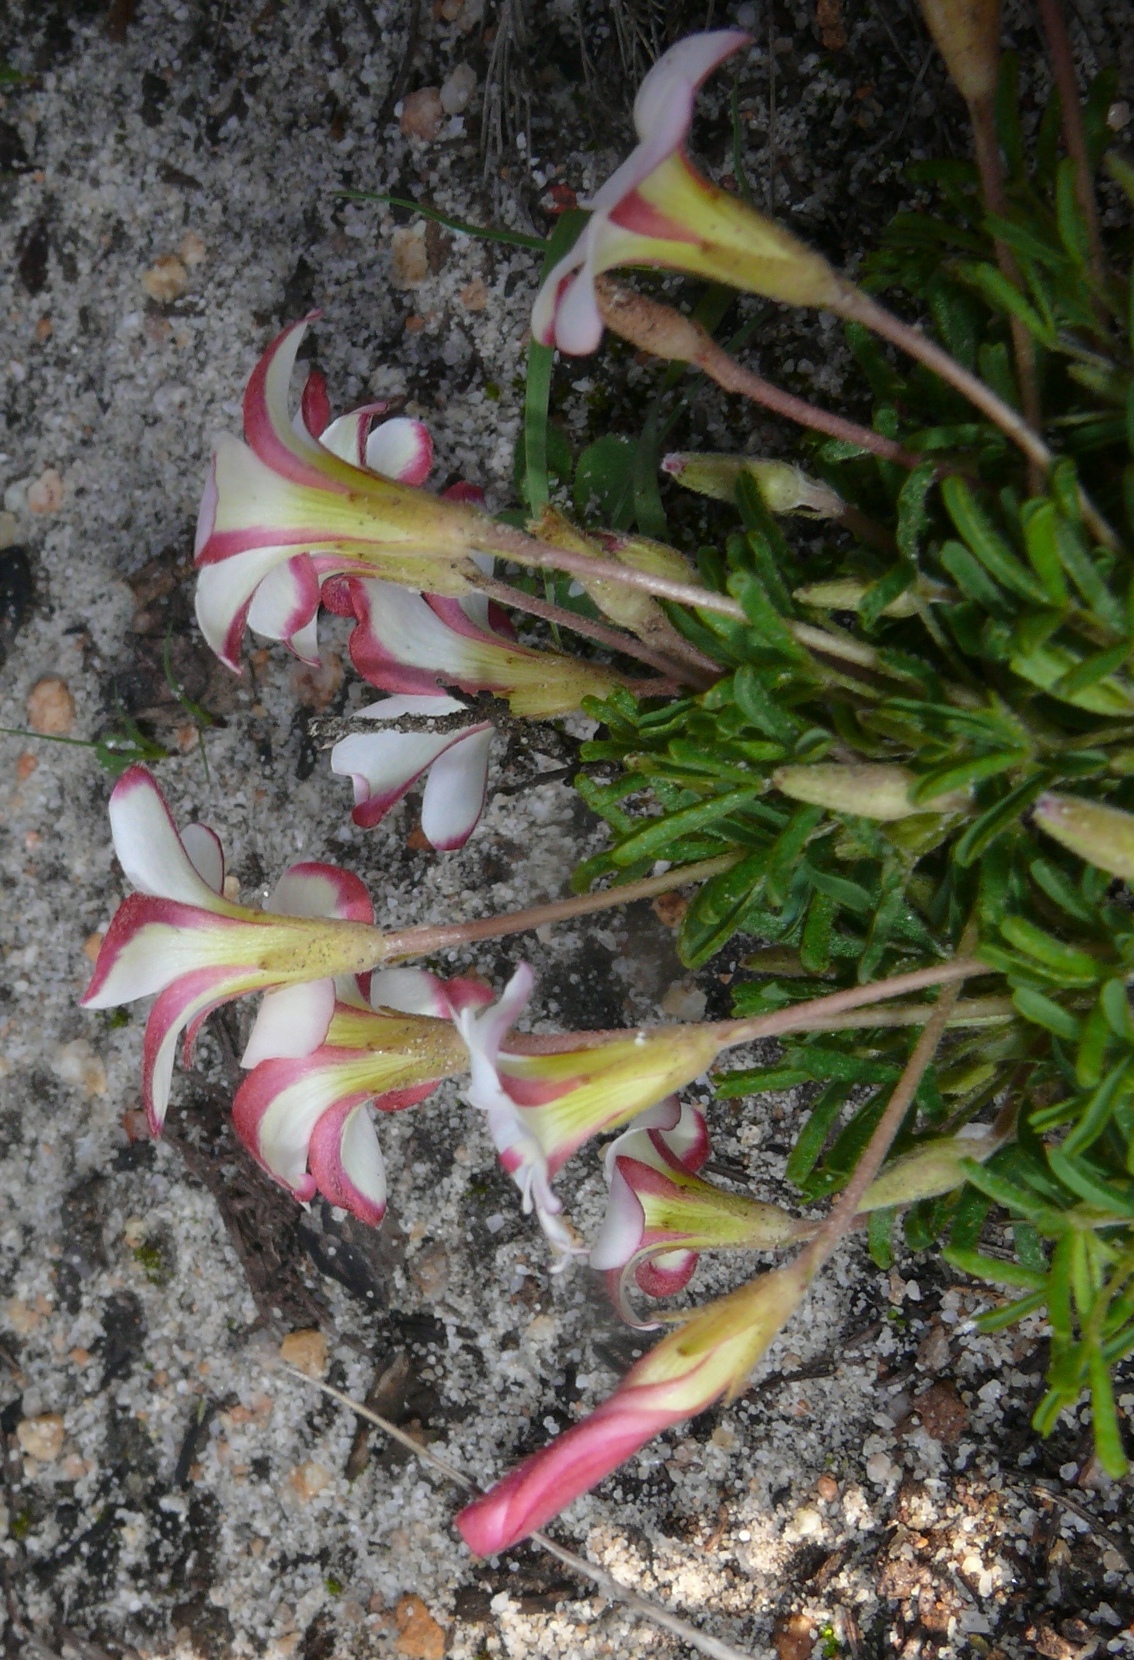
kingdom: Plantae
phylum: Tracheophyta
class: Magnoliopsida
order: Oxalidales
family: Oxalidaceae
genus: Oxalis
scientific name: Oxalis versicolor
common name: Peppermint rock oxalis
